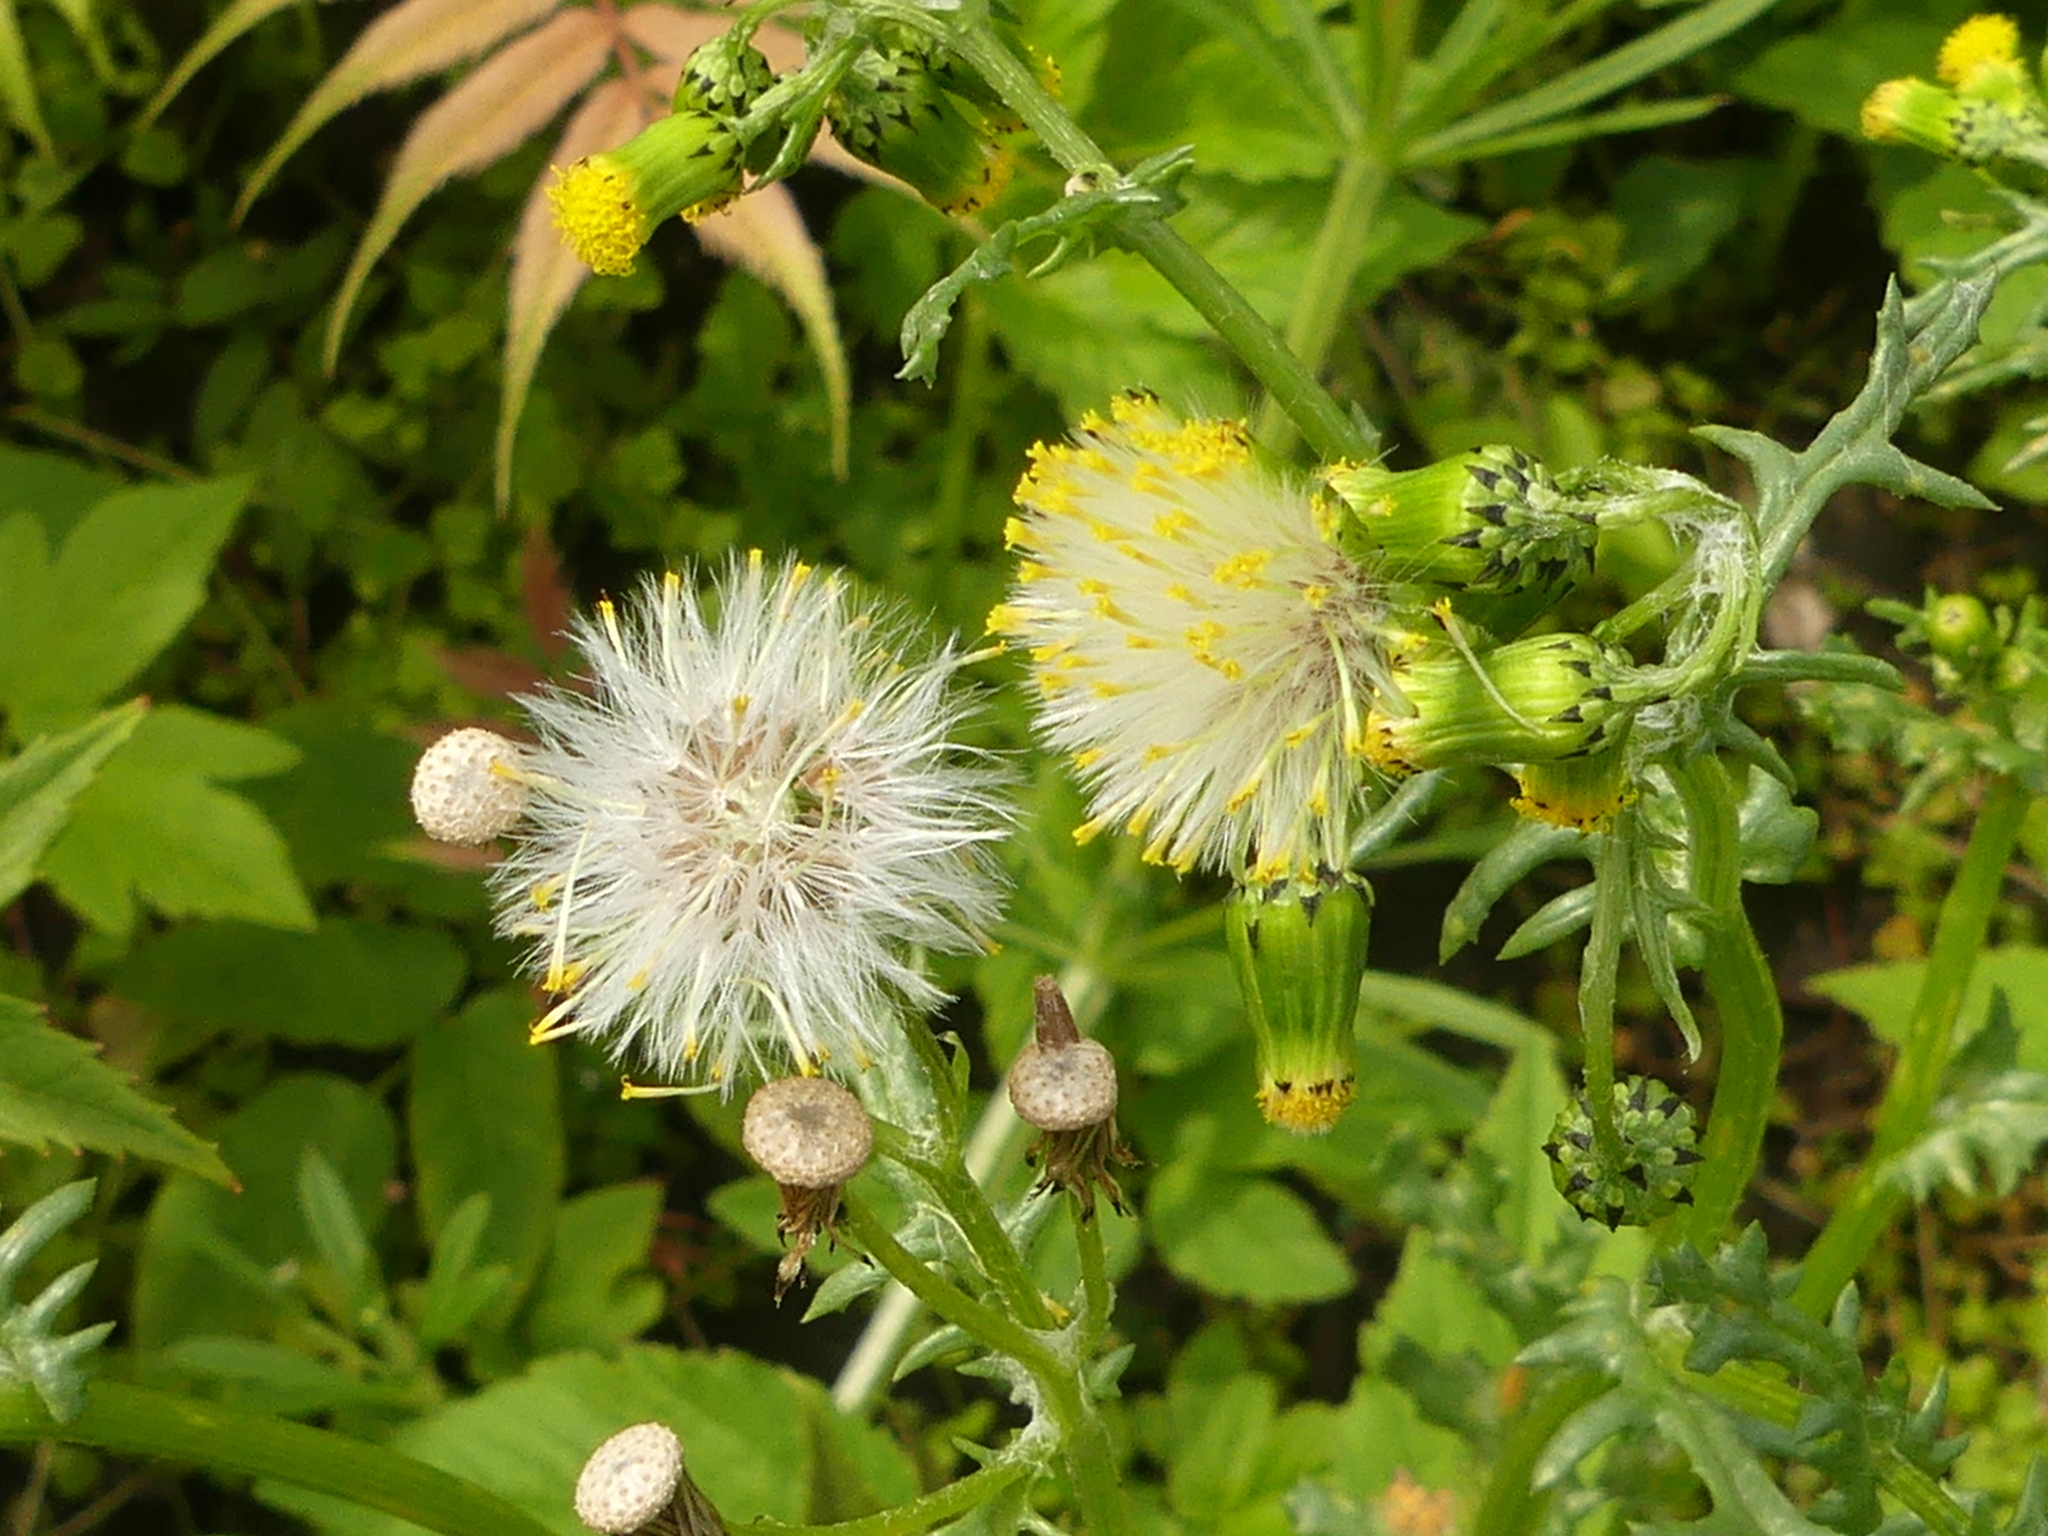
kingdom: Plantae
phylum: Tracheophyta
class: Magnoliopsida
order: Asterales
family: Asteraceae
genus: Senecio
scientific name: Senecio vulgaris
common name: Old-man-in-the-spring
